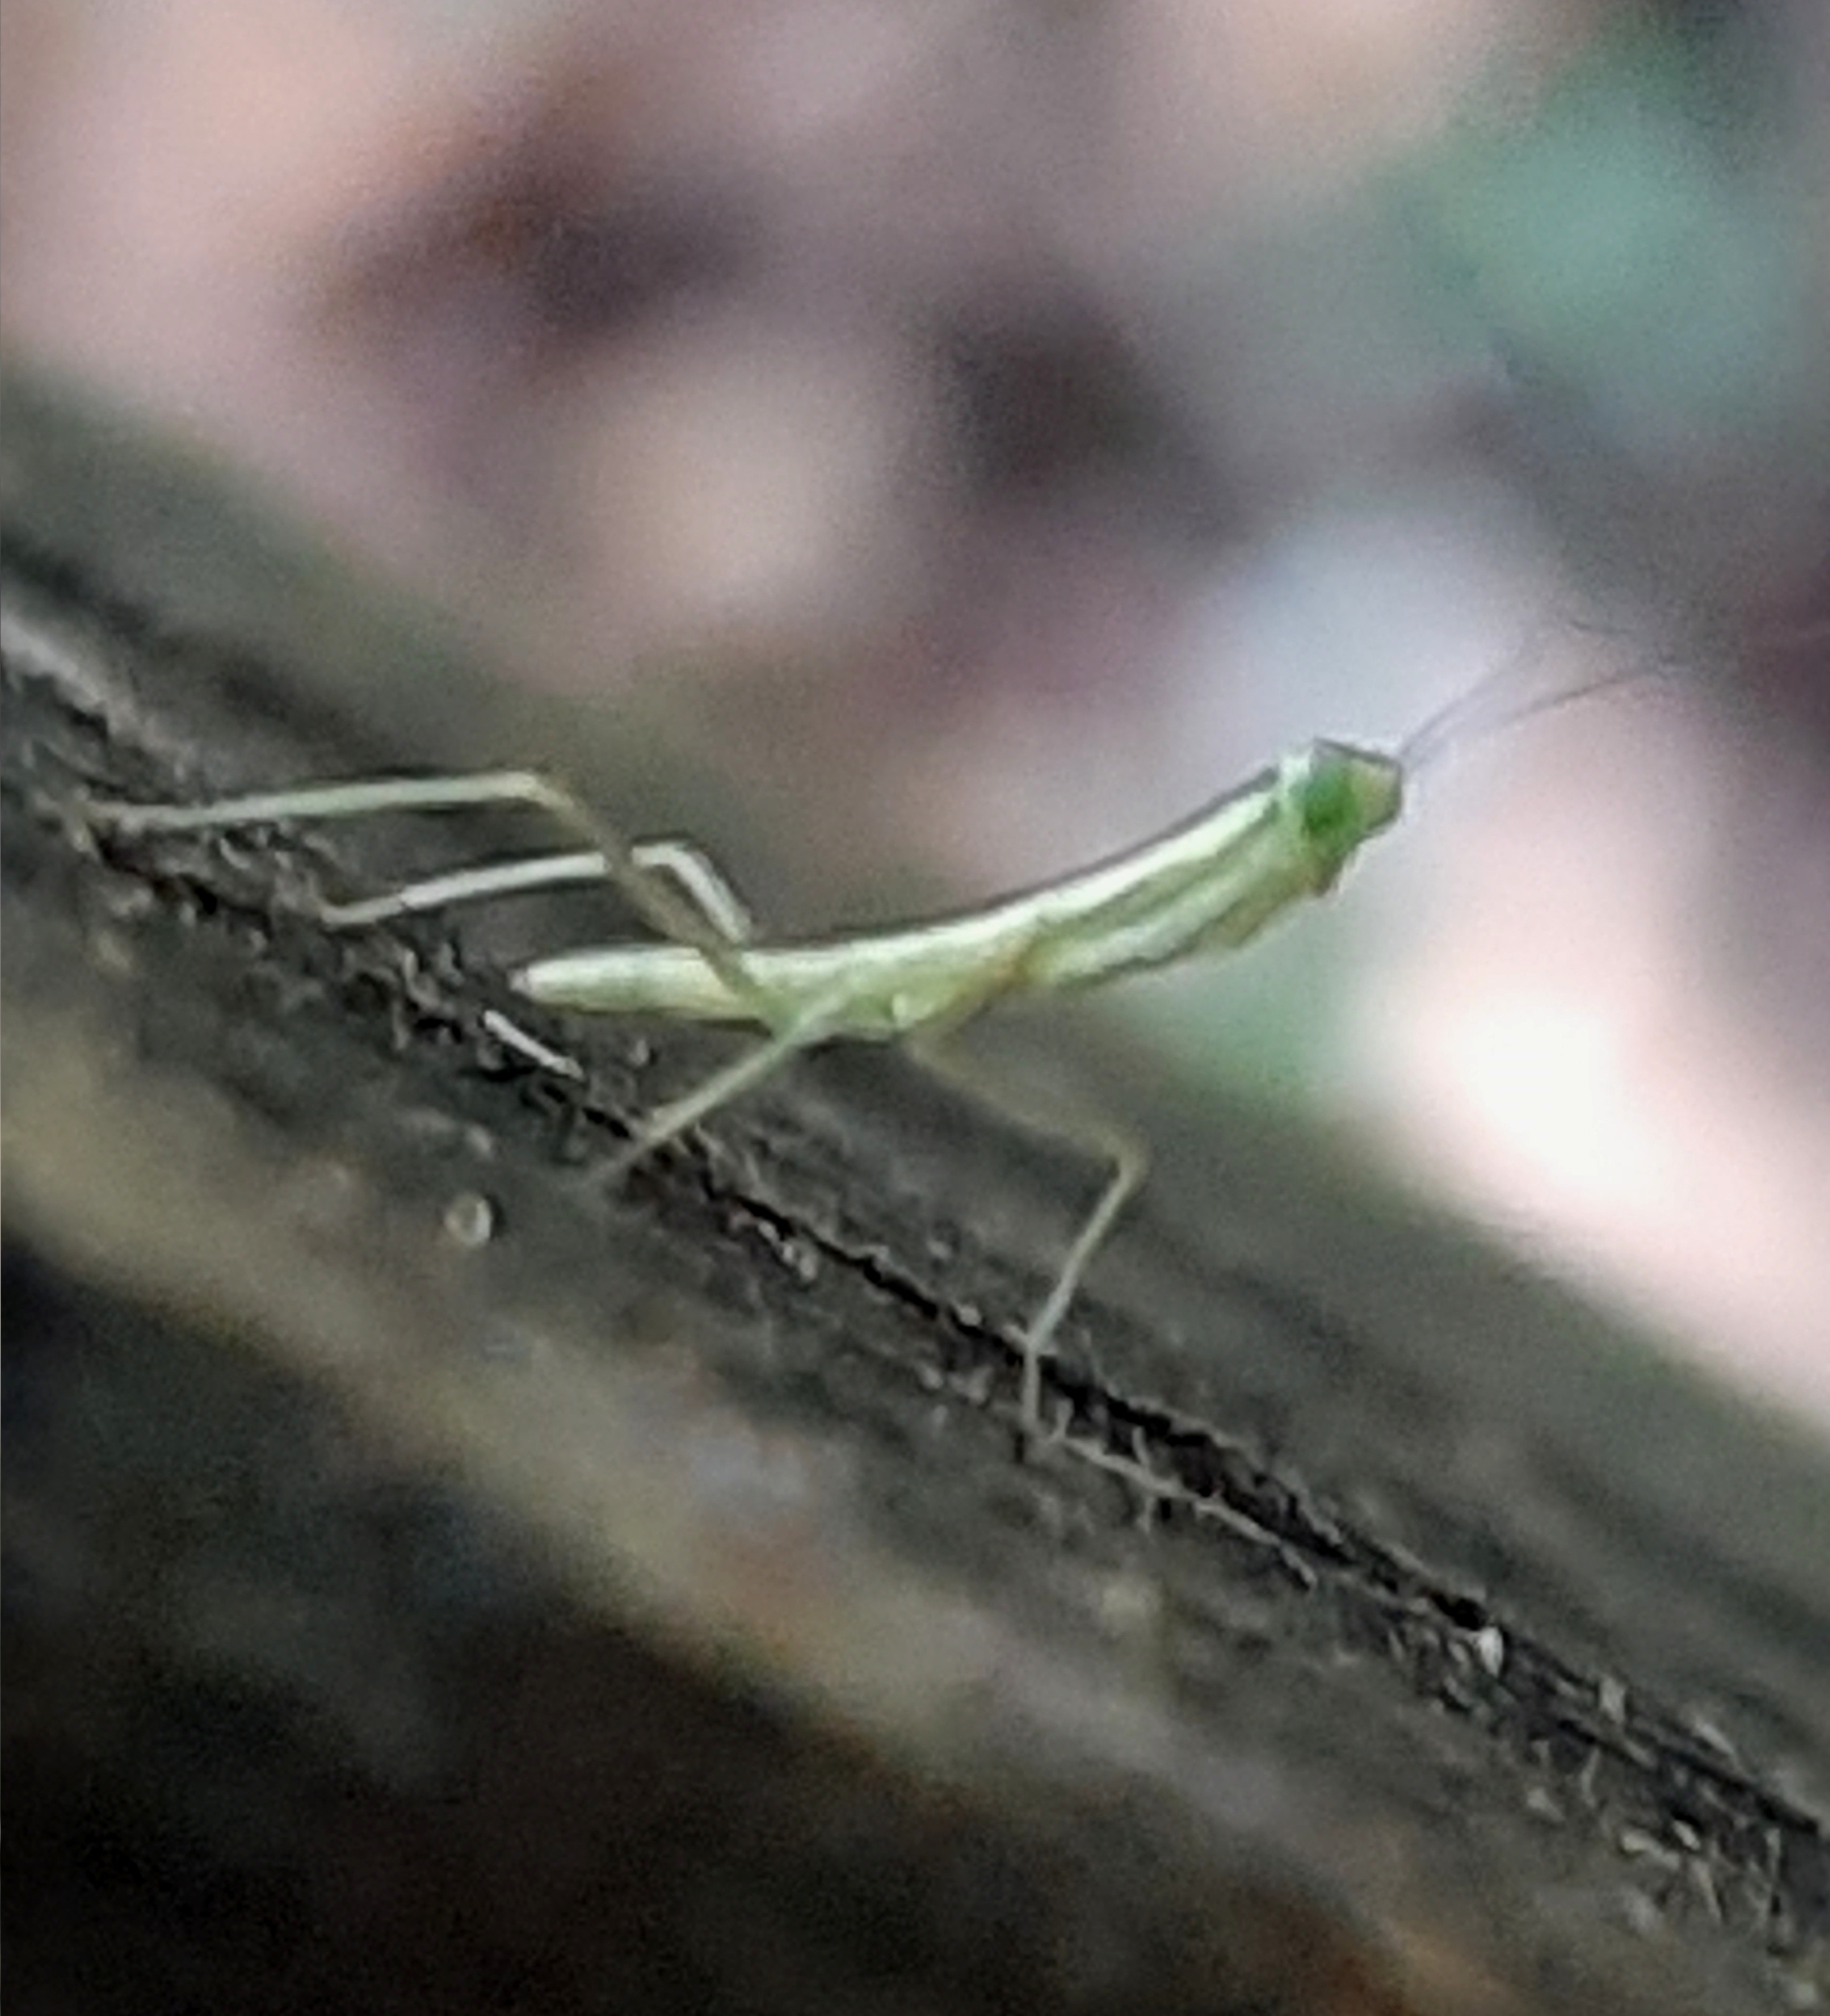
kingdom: Animalia
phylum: Arthropoda
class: Insecta
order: Mantodea
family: Mantidae
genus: Orthodera
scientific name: Orthodera ministralis
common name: Mantis
